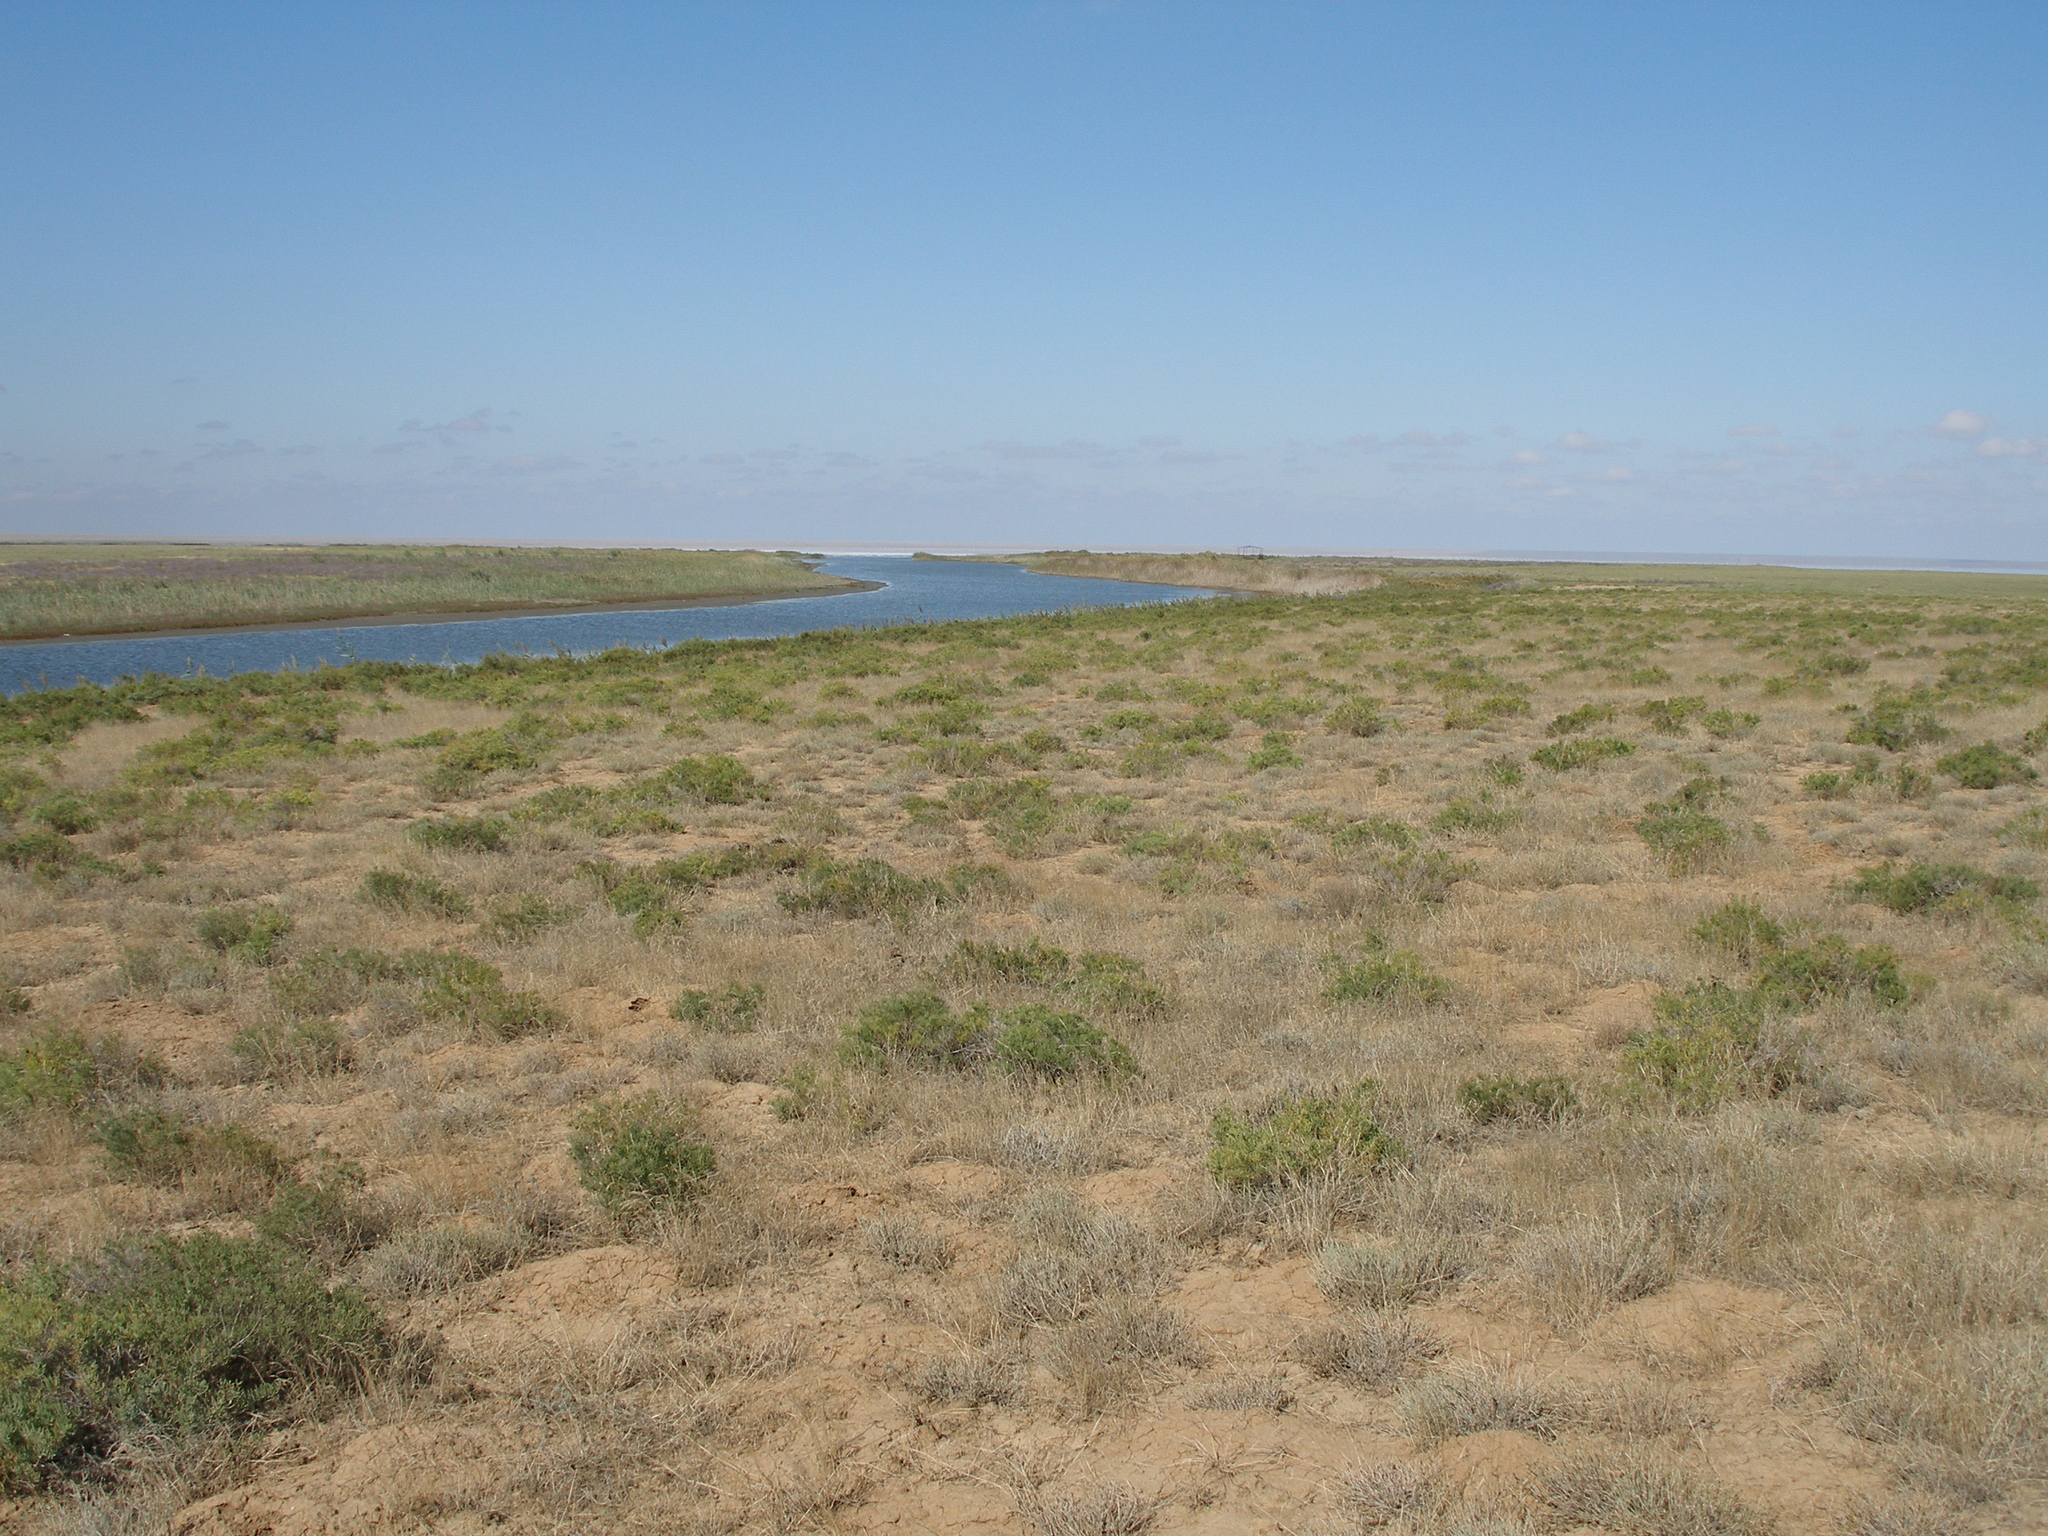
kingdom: Plantae
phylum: Tracheophyta
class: Magnoliopsida
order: Caryophyllales
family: Amaranthaceae
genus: Suaeda
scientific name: Suaeda physophora
